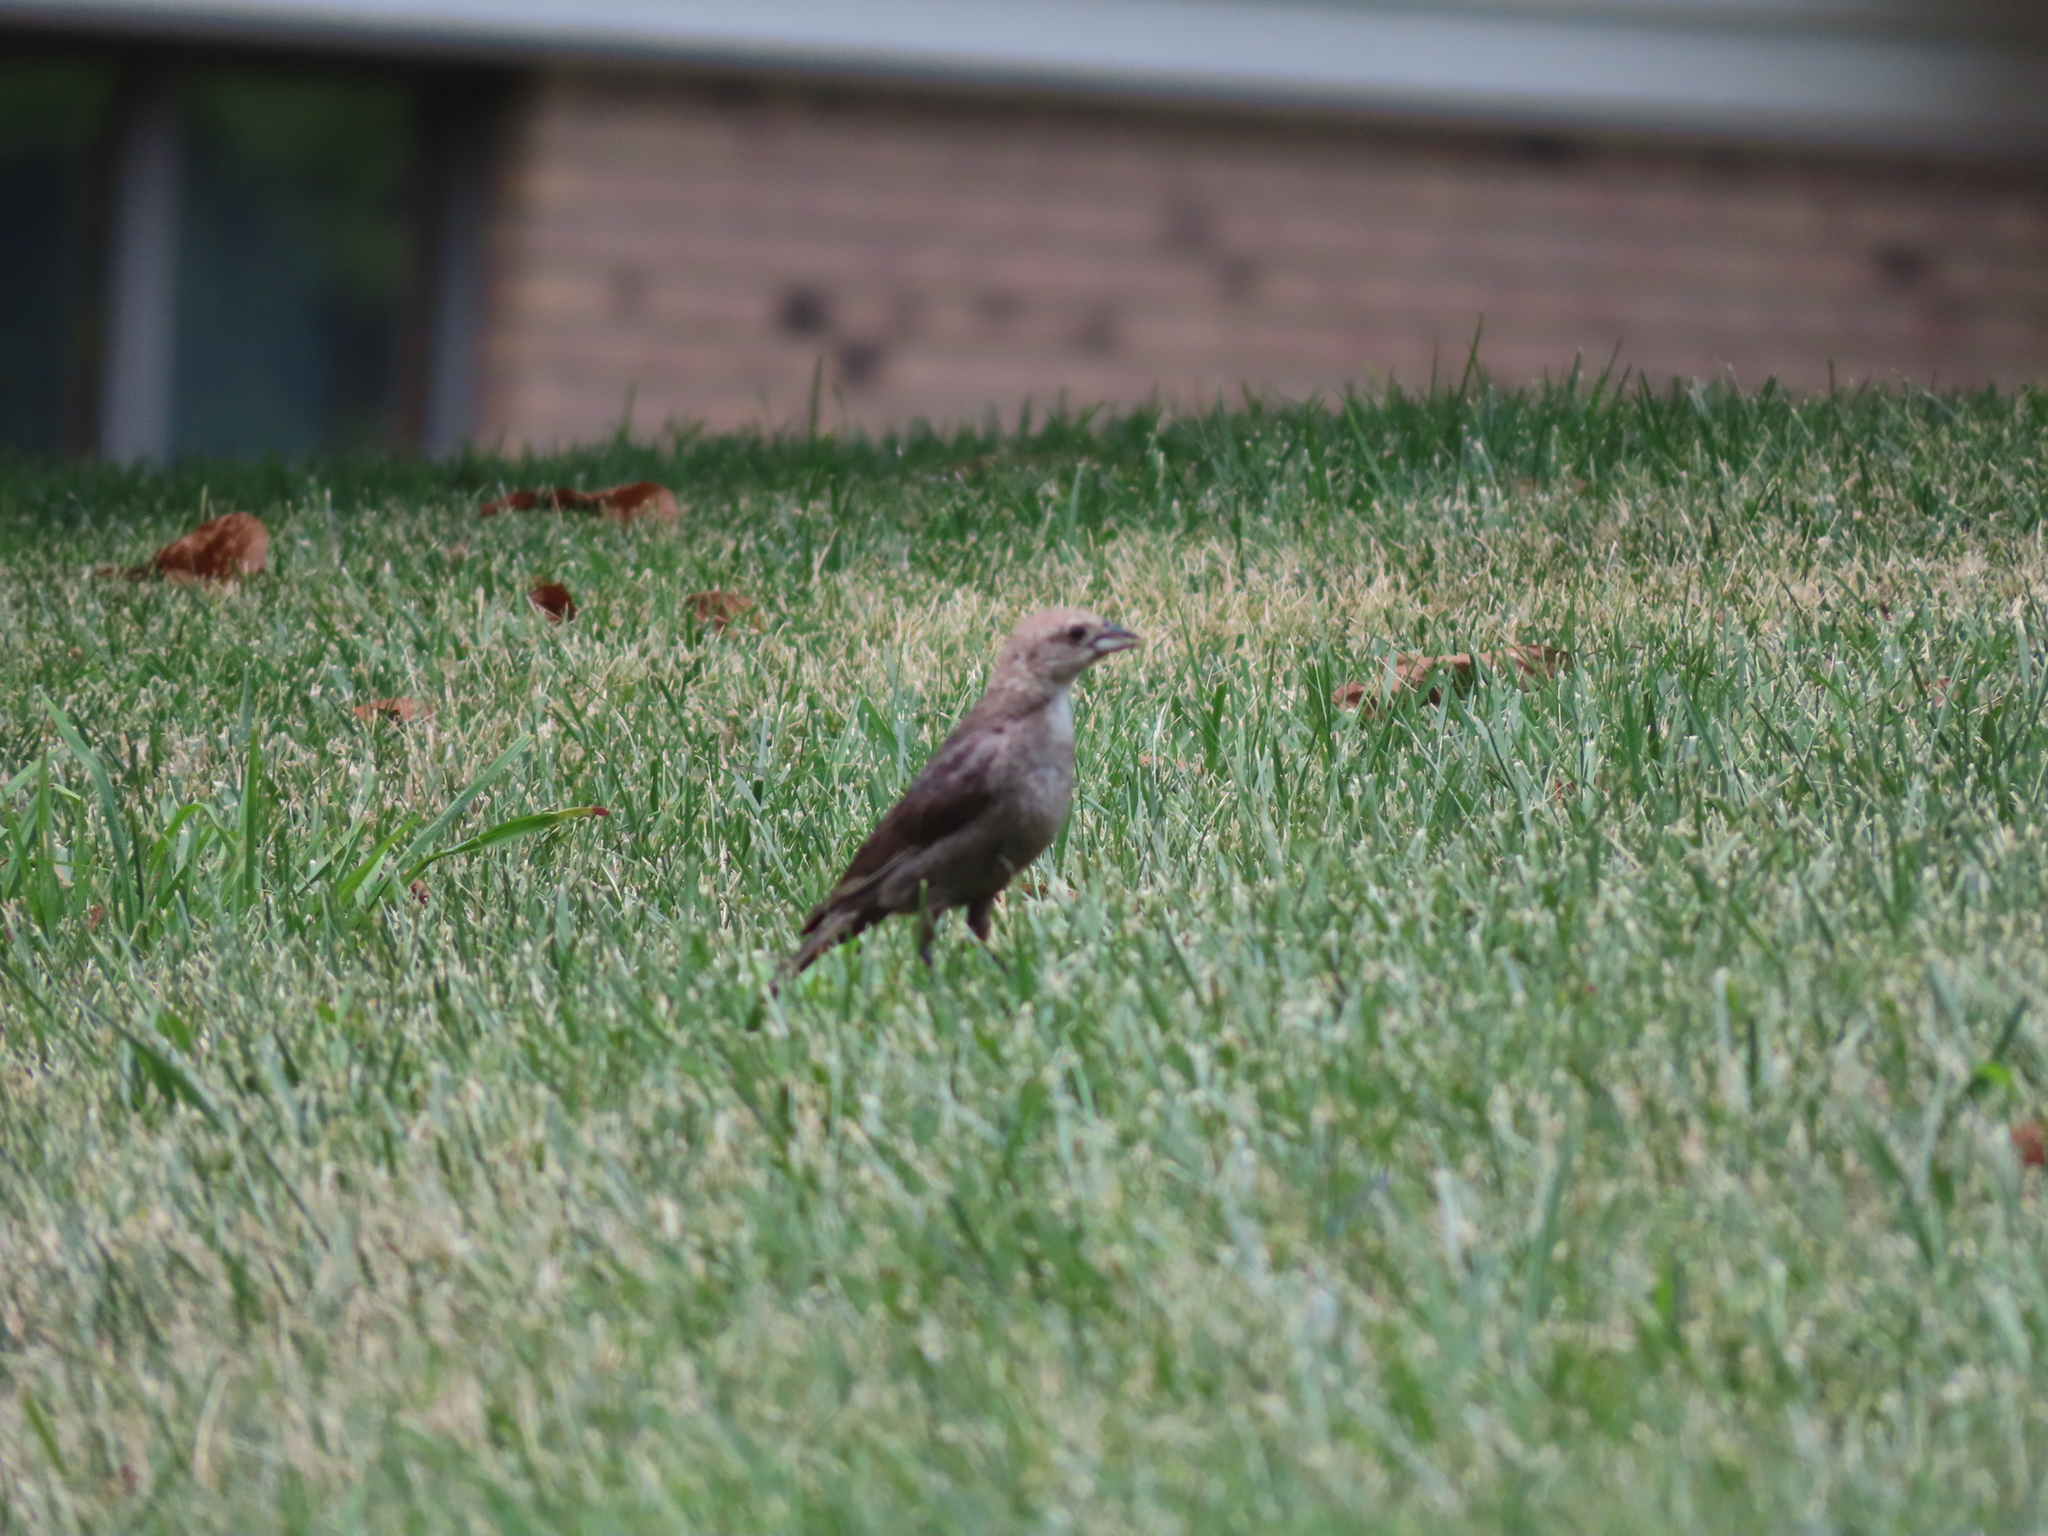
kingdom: Animalia
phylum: Chordata
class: Aves
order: Passeriformes
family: Icteridae
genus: Molothrus
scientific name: Molothrus ater
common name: Brown-headed cowbird
